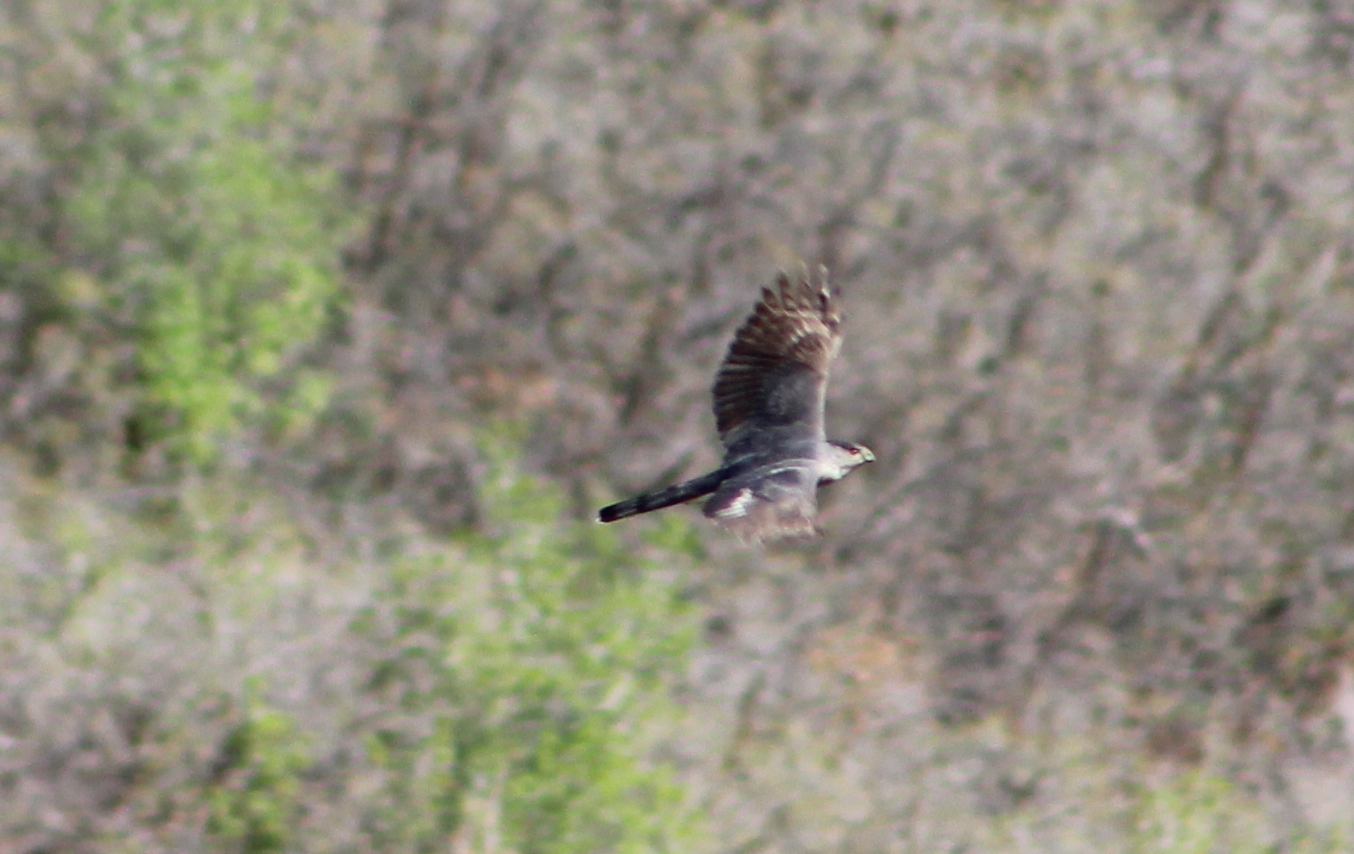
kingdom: Animalia
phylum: Chordata
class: Aves
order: Accipitriformes
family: Accipitridae
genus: Accipiter
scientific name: Accipiter cooperii
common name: Cooper's hawk
